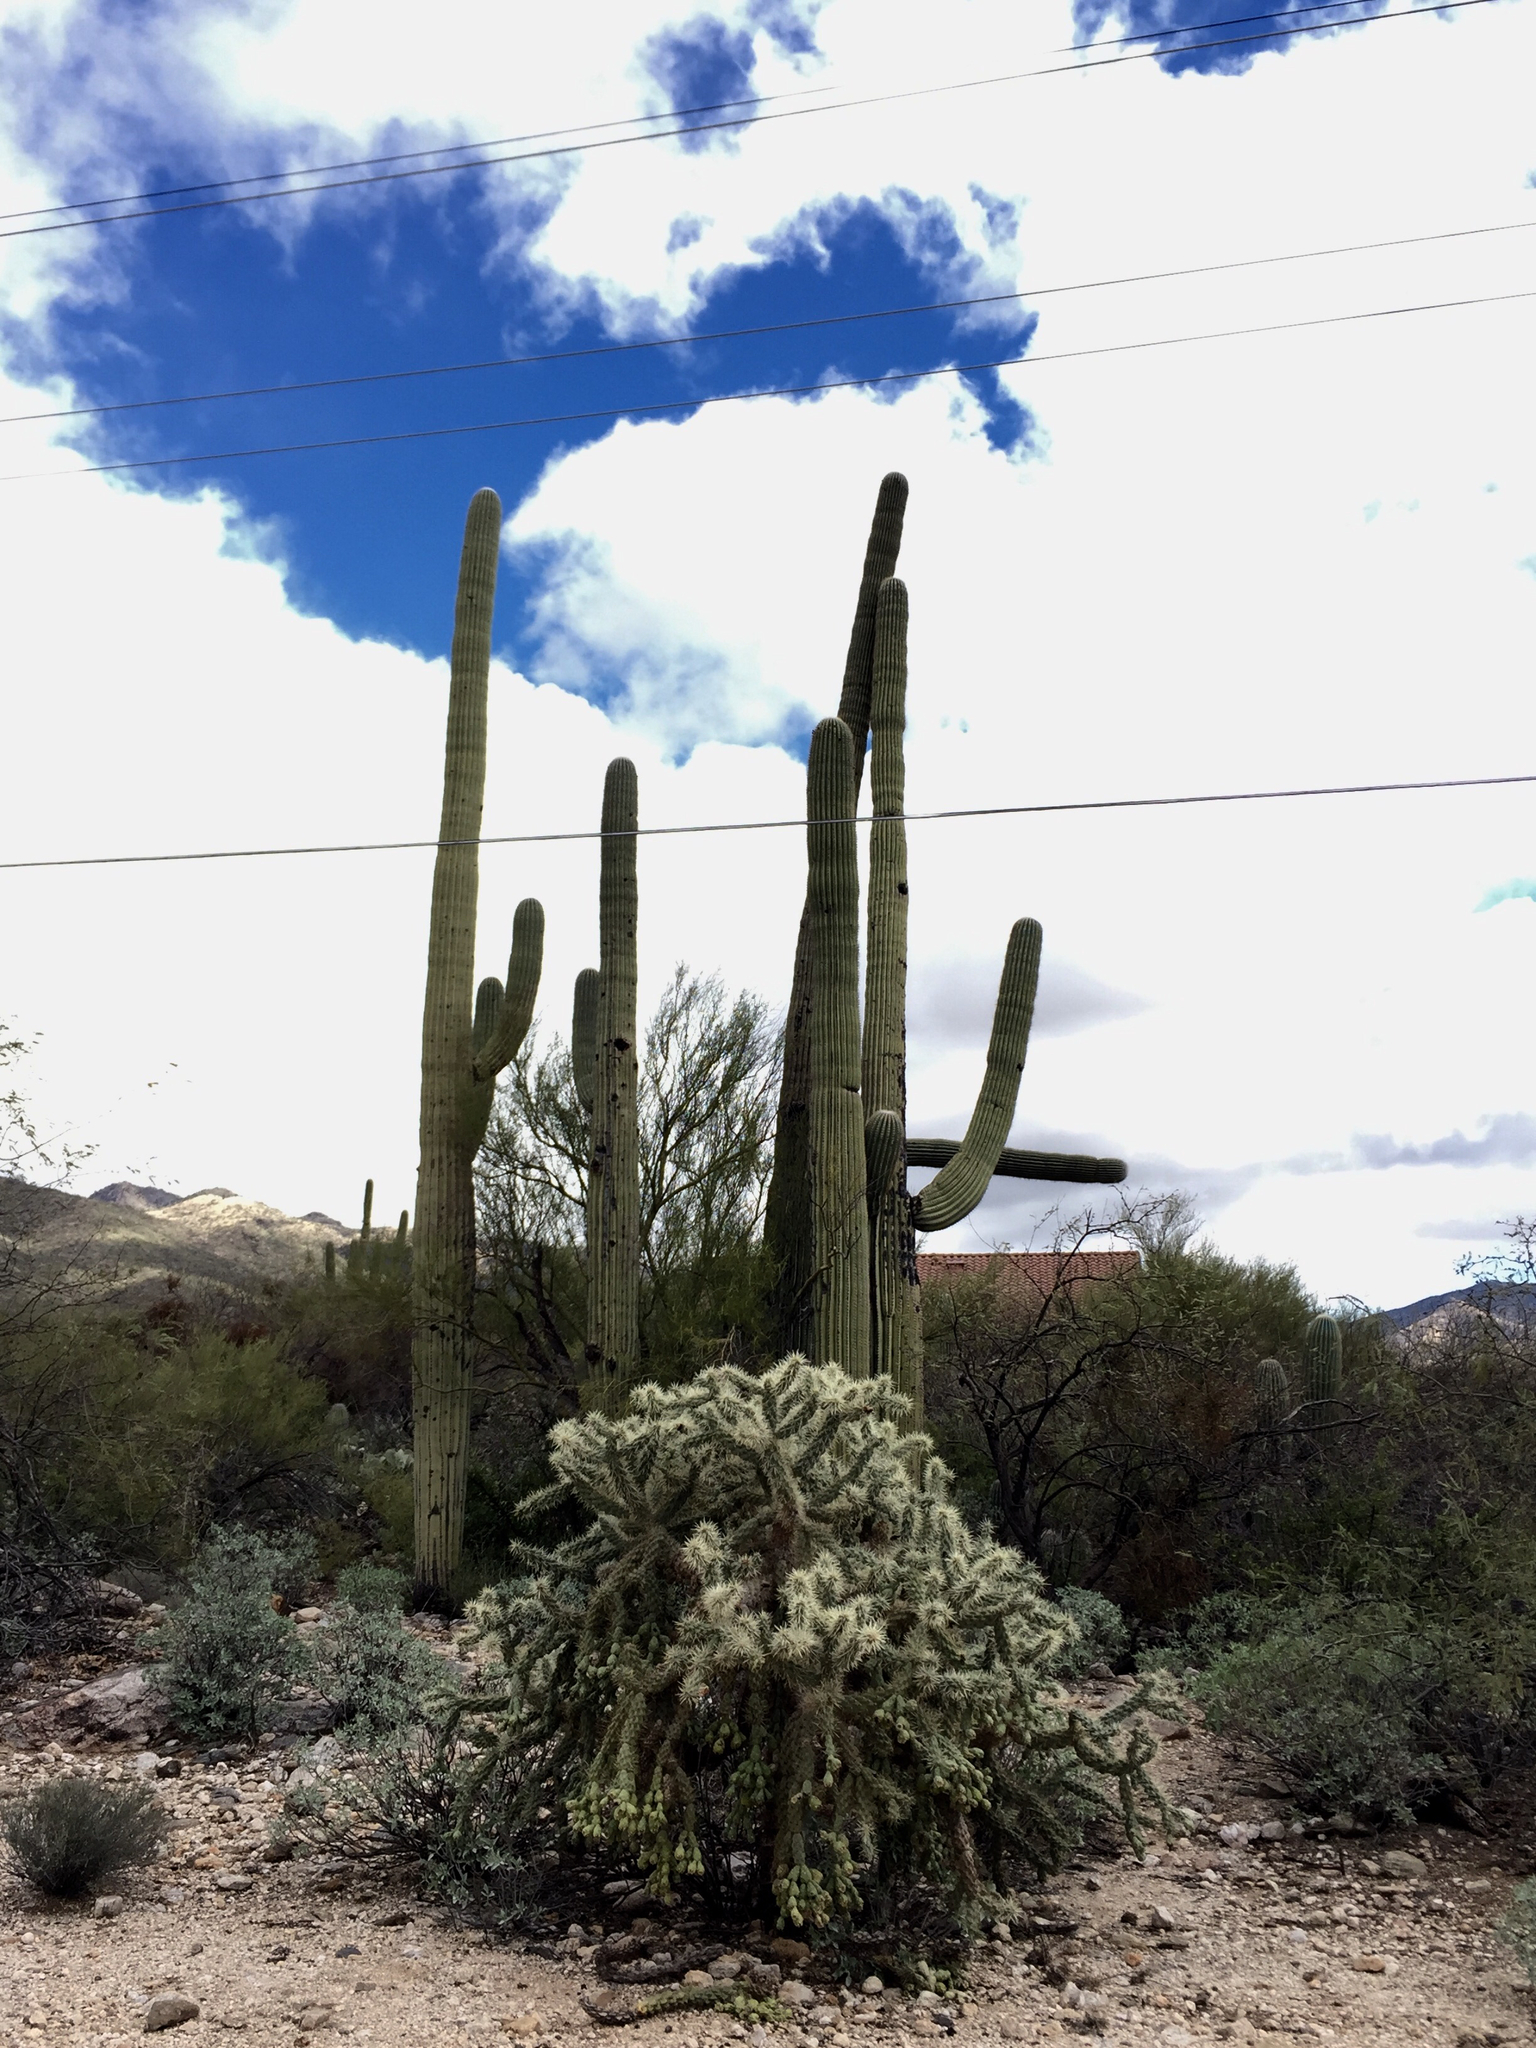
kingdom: Plantae
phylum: Tracheophyta
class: Magnoliopsida
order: Caryophyllales
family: Cactaceae
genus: Carnegiea
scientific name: Carnegiea gigantea
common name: Saguaro
